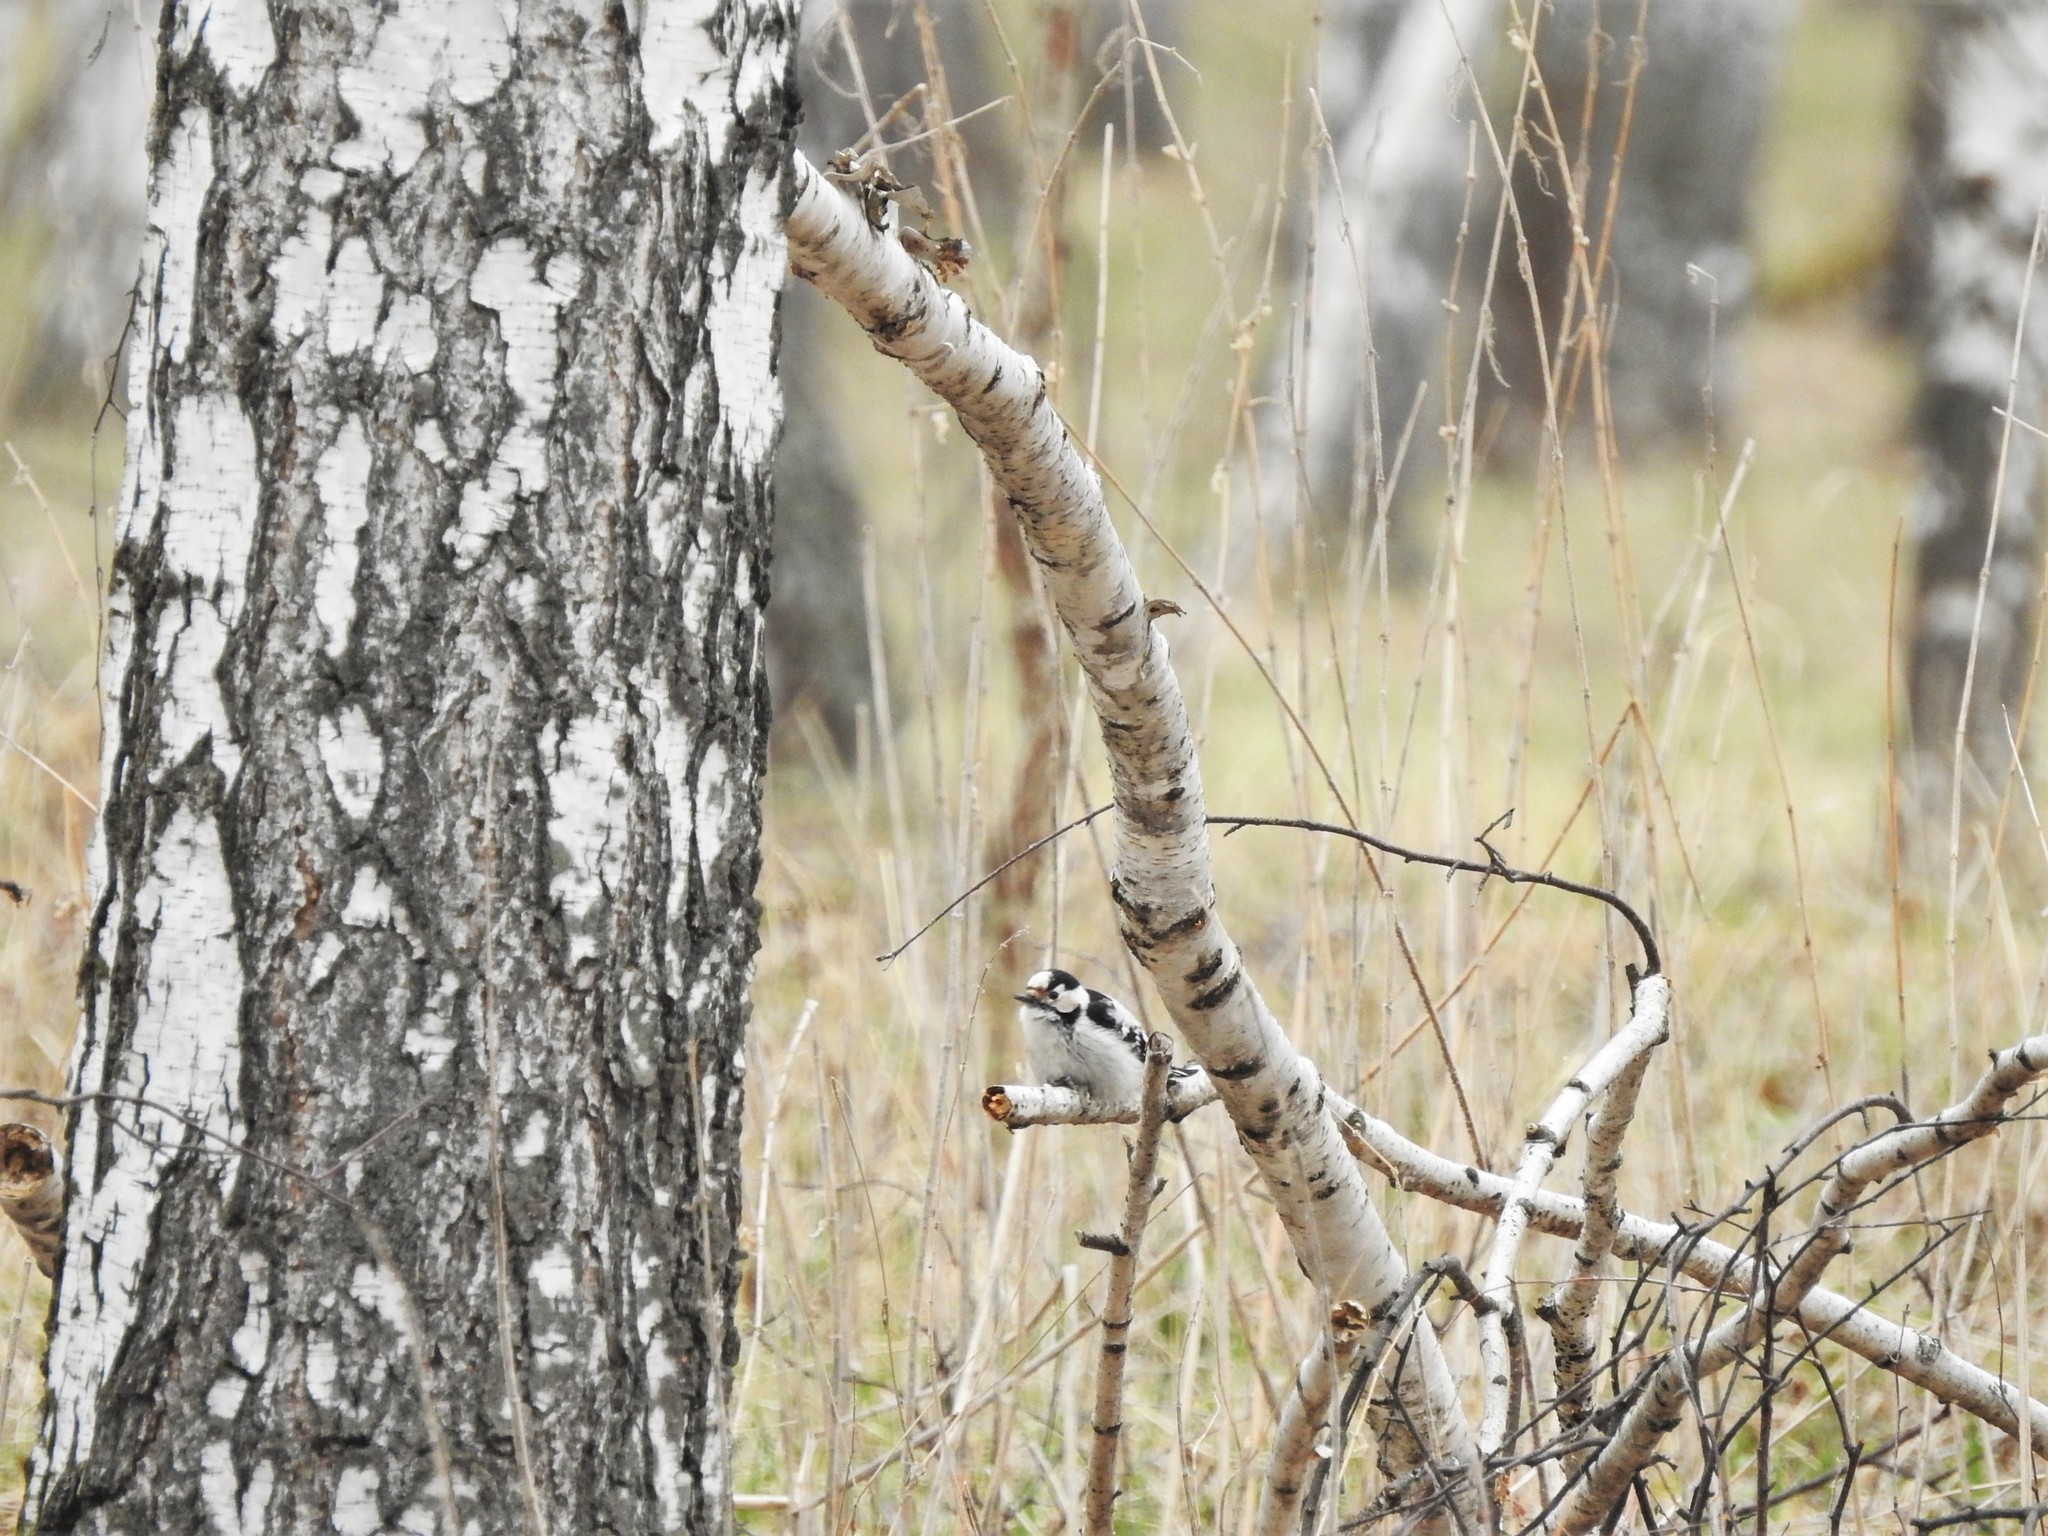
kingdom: Animalia
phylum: Chordata
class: Aves
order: Piciformes
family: Picidae
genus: Dryobates
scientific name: Dryobates minor
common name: Lesser spotted woodpecker
